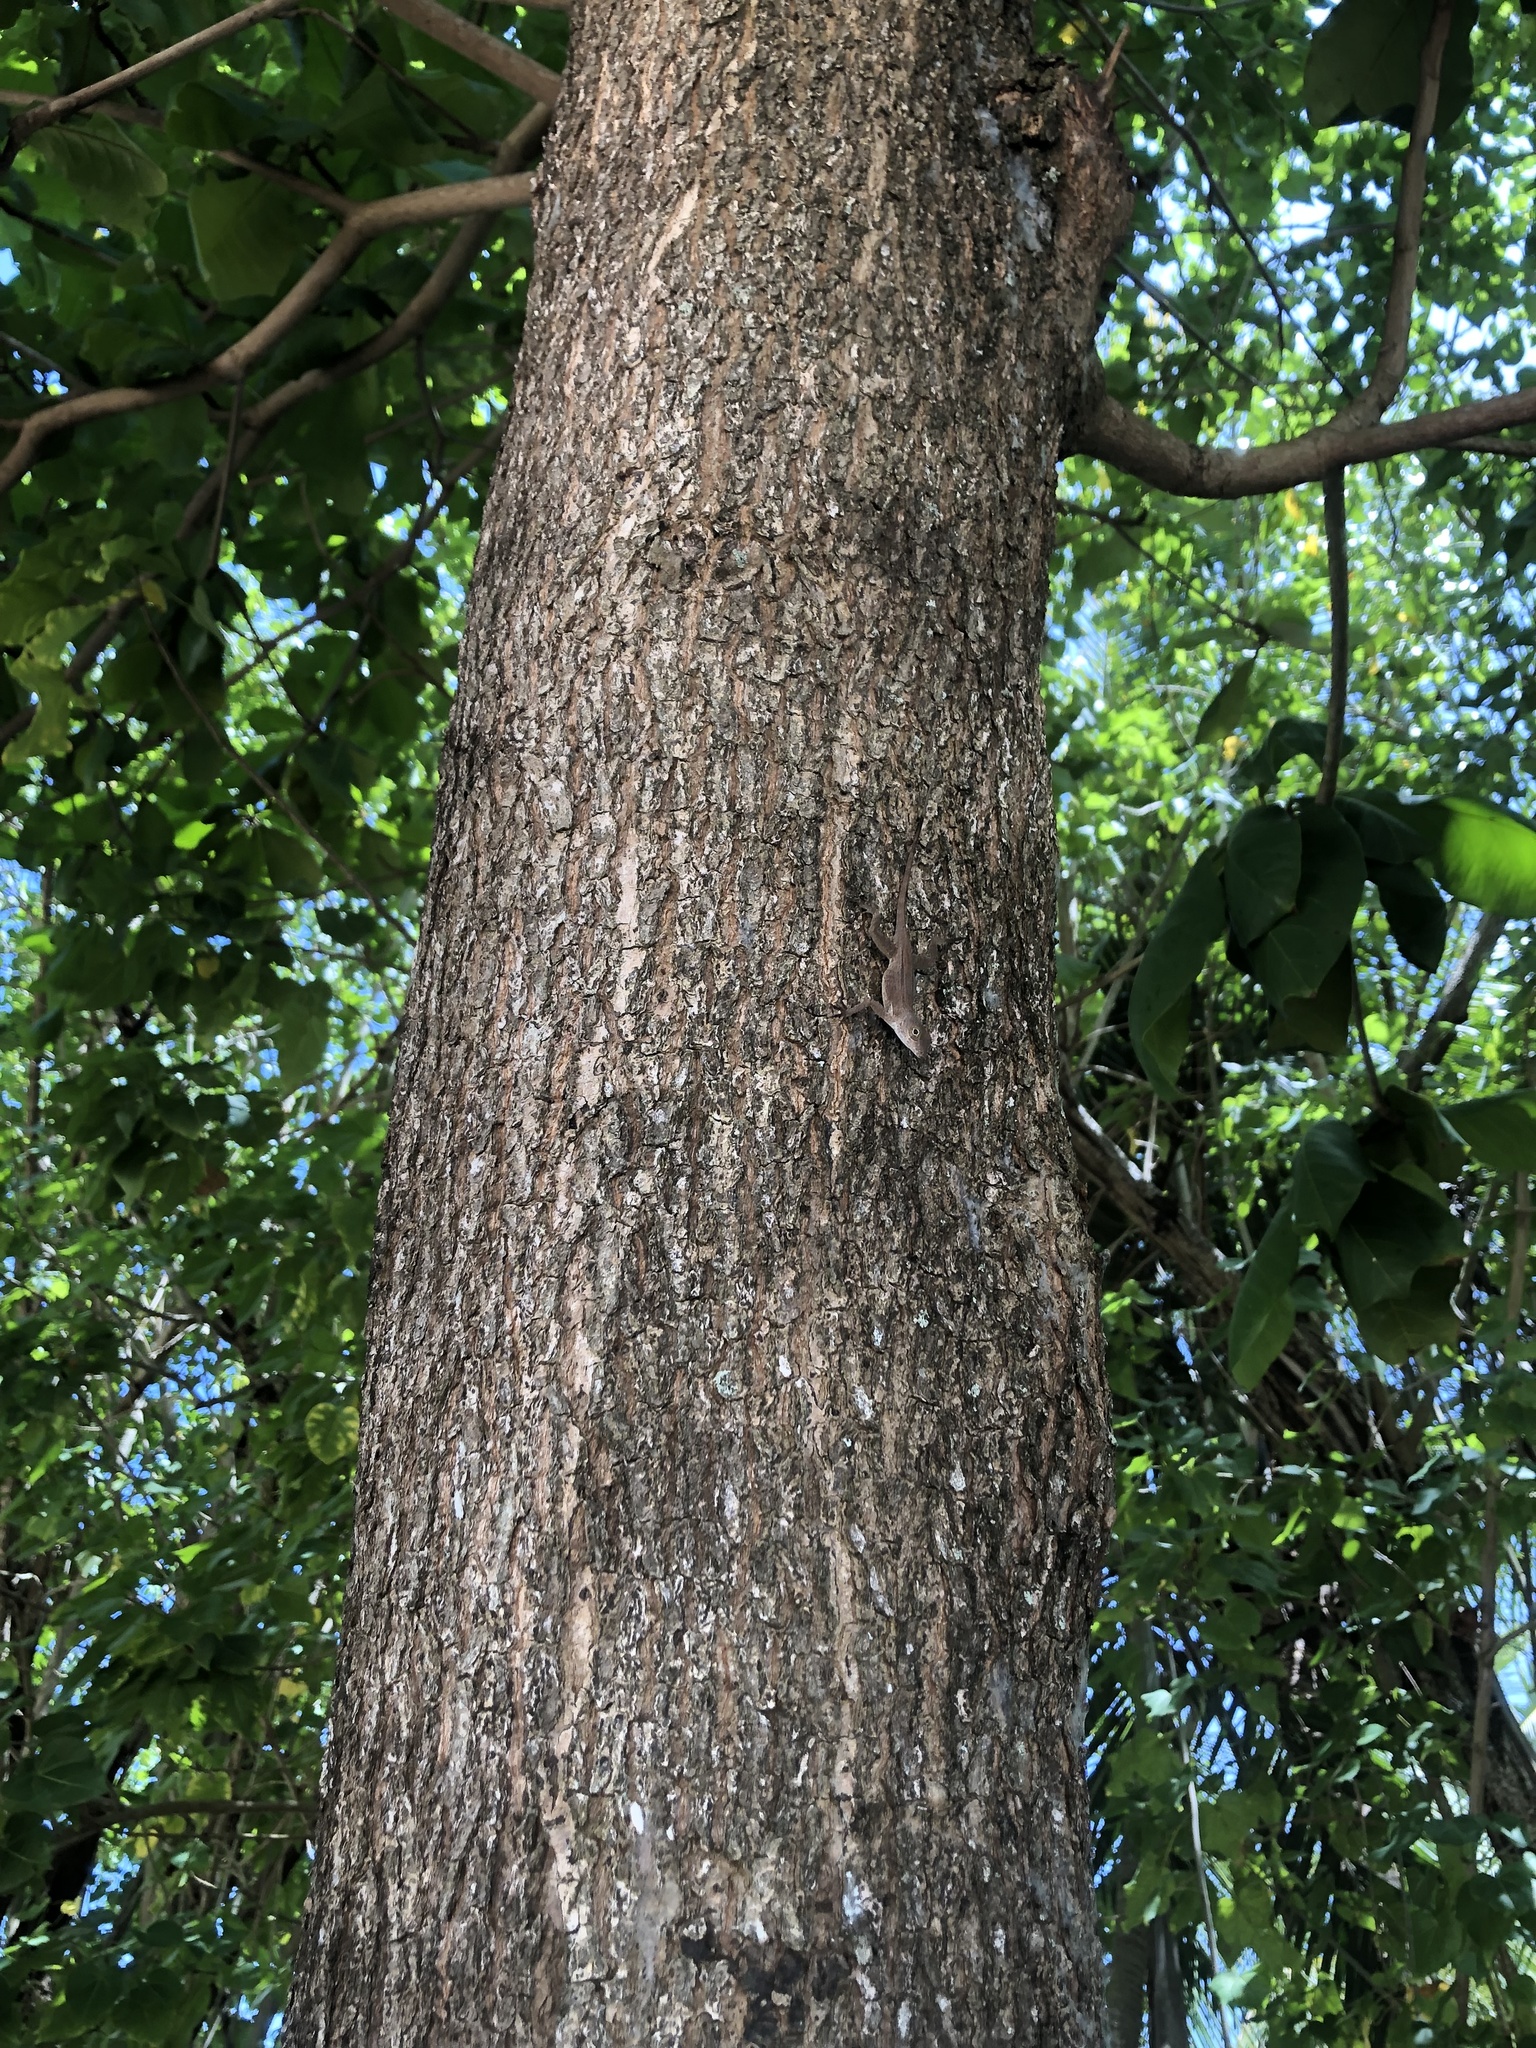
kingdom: Animalia
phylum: Chordata
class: Squamata
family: Dactyloidae
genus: Anolis
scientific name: Anolis cristatellus
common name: Crested anole
